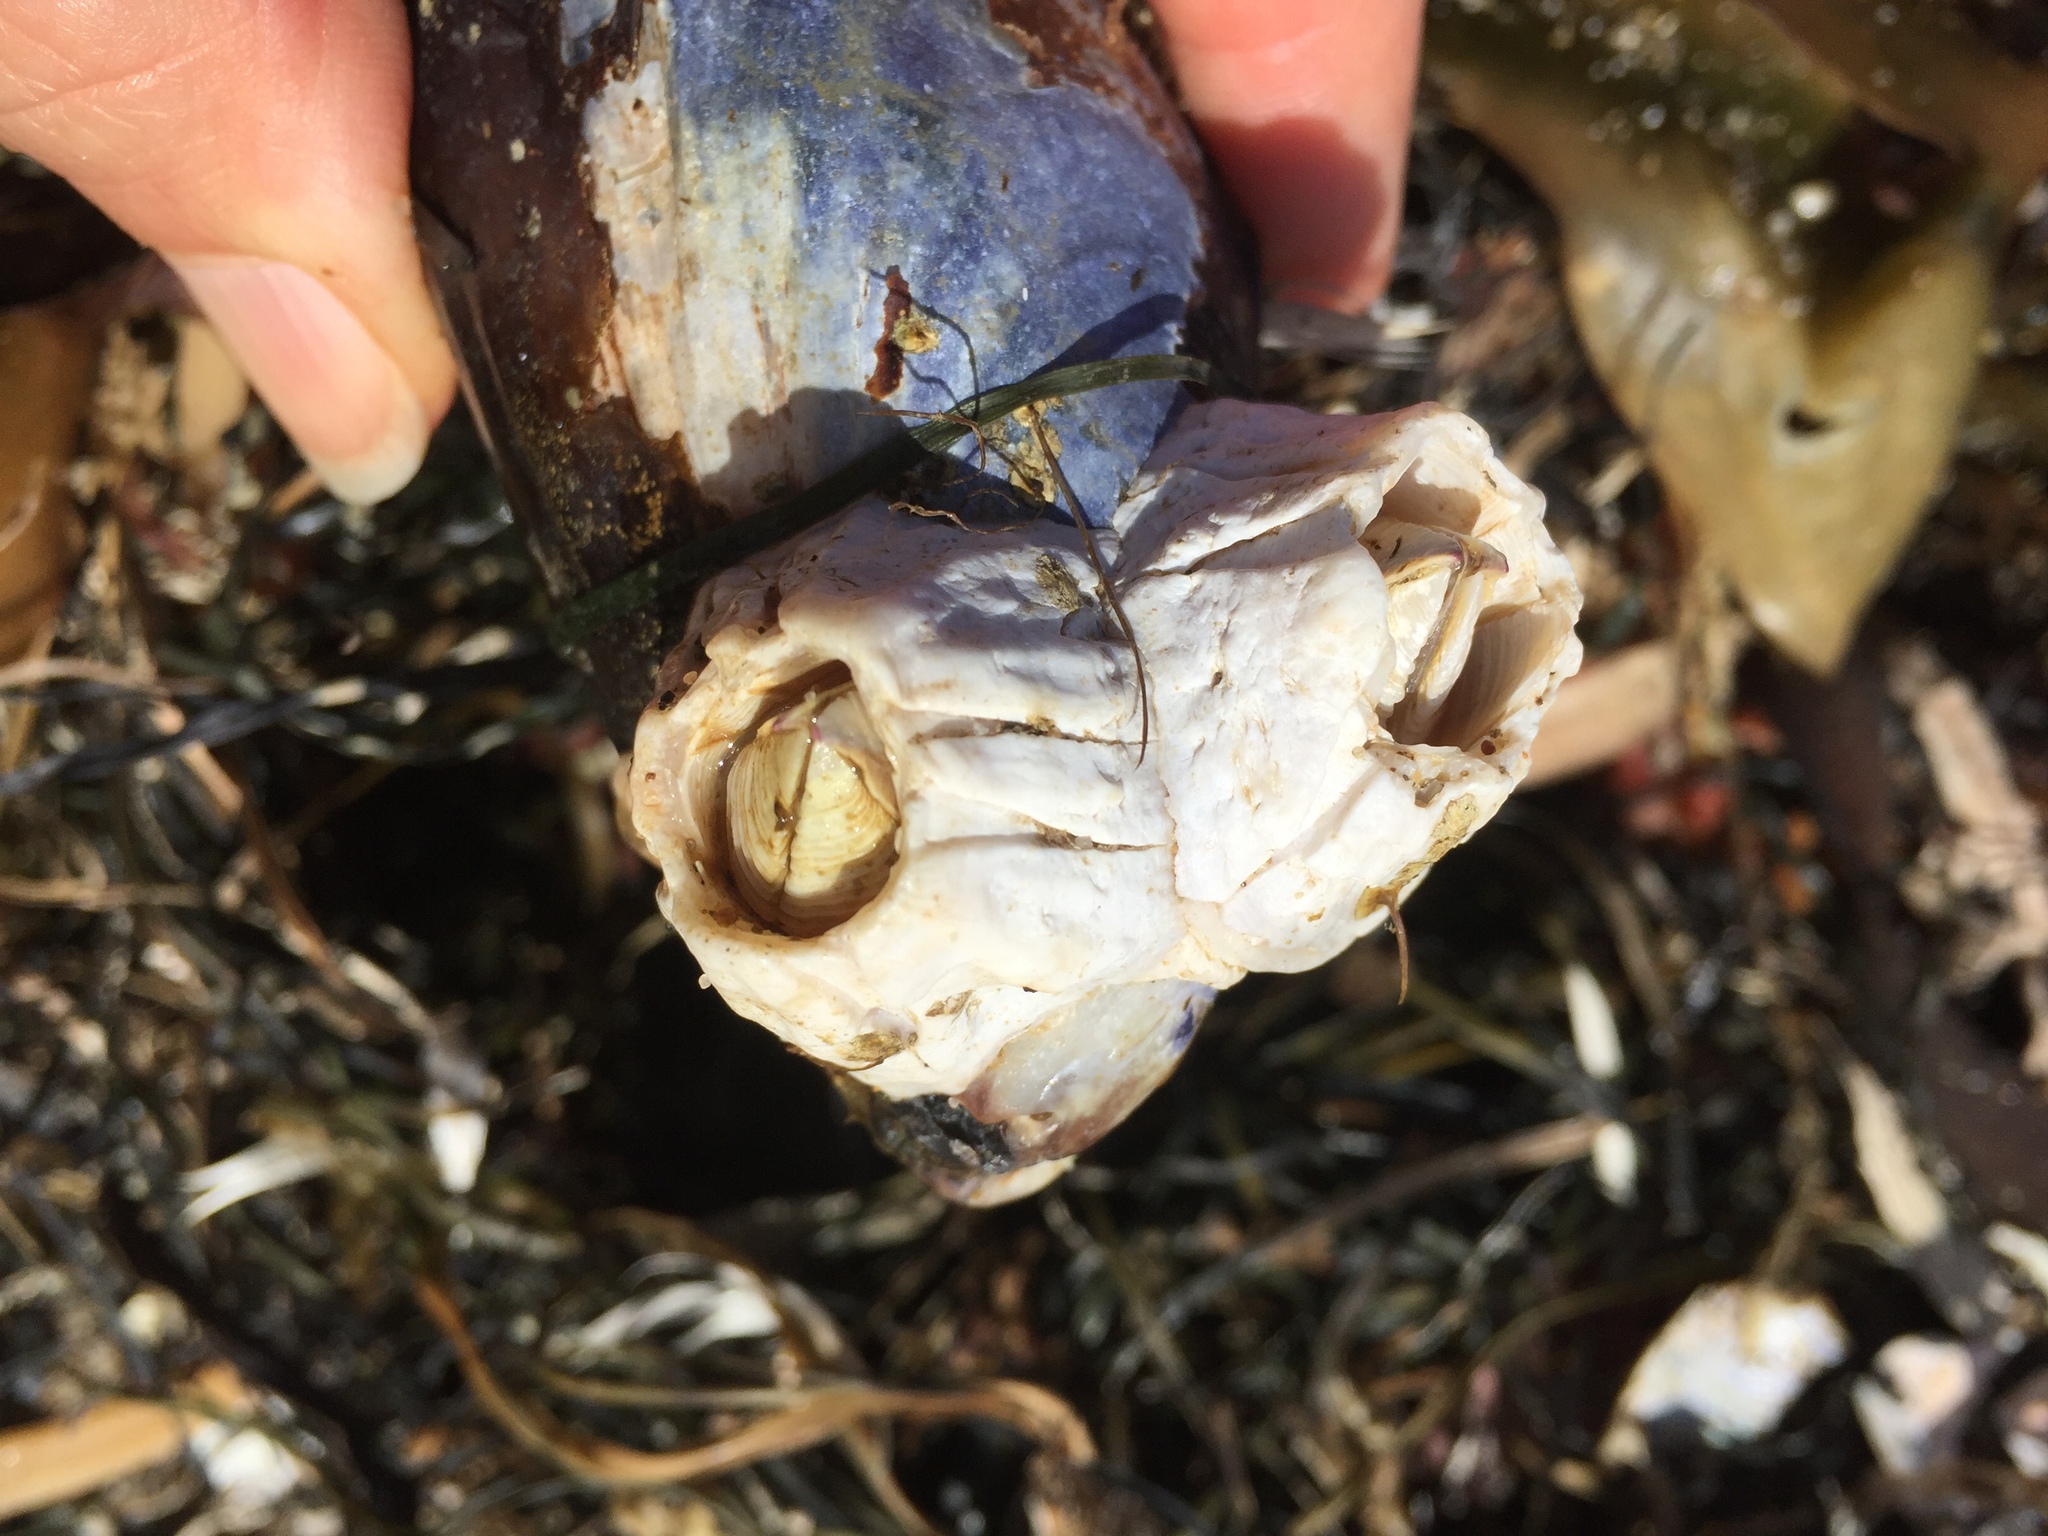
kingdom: Animalia
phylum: Arthropoda
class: Maxillopoda
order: Sessilia
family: Balanidae
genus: Balanus
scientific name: Balanus nubilus
